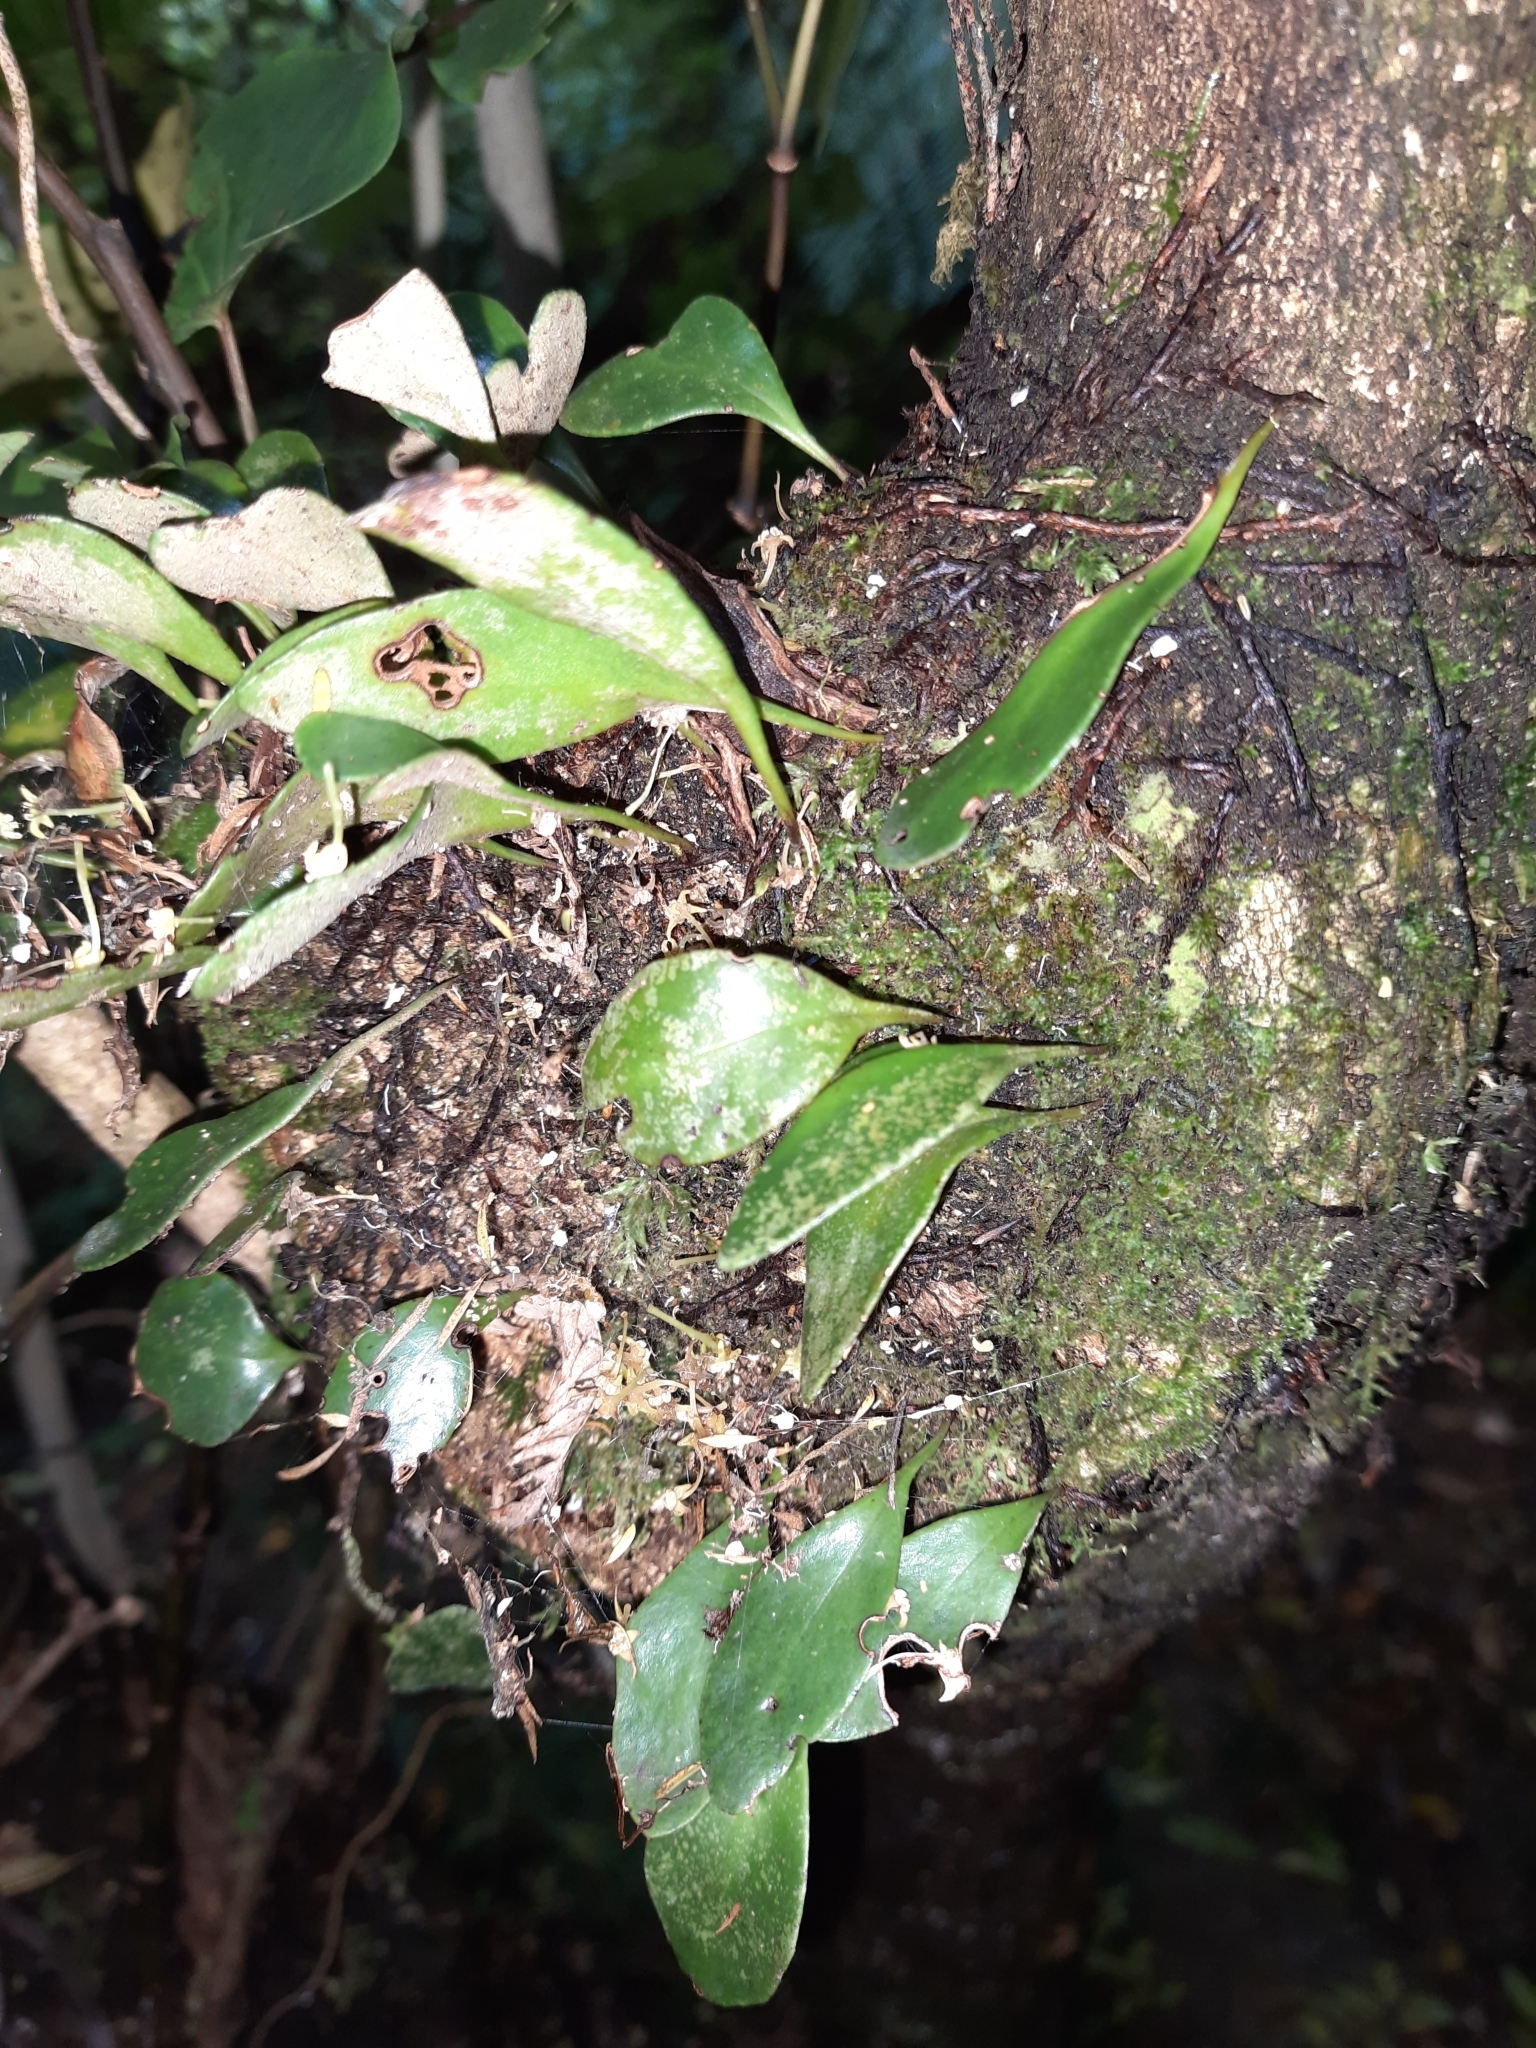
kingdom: Plantae
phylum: Tracheophyta
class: Polypodiopsida
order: Polypodiales
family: Polypodiaceae
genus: Pyrrosia
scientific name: Pyrrosia eleagnifolia
